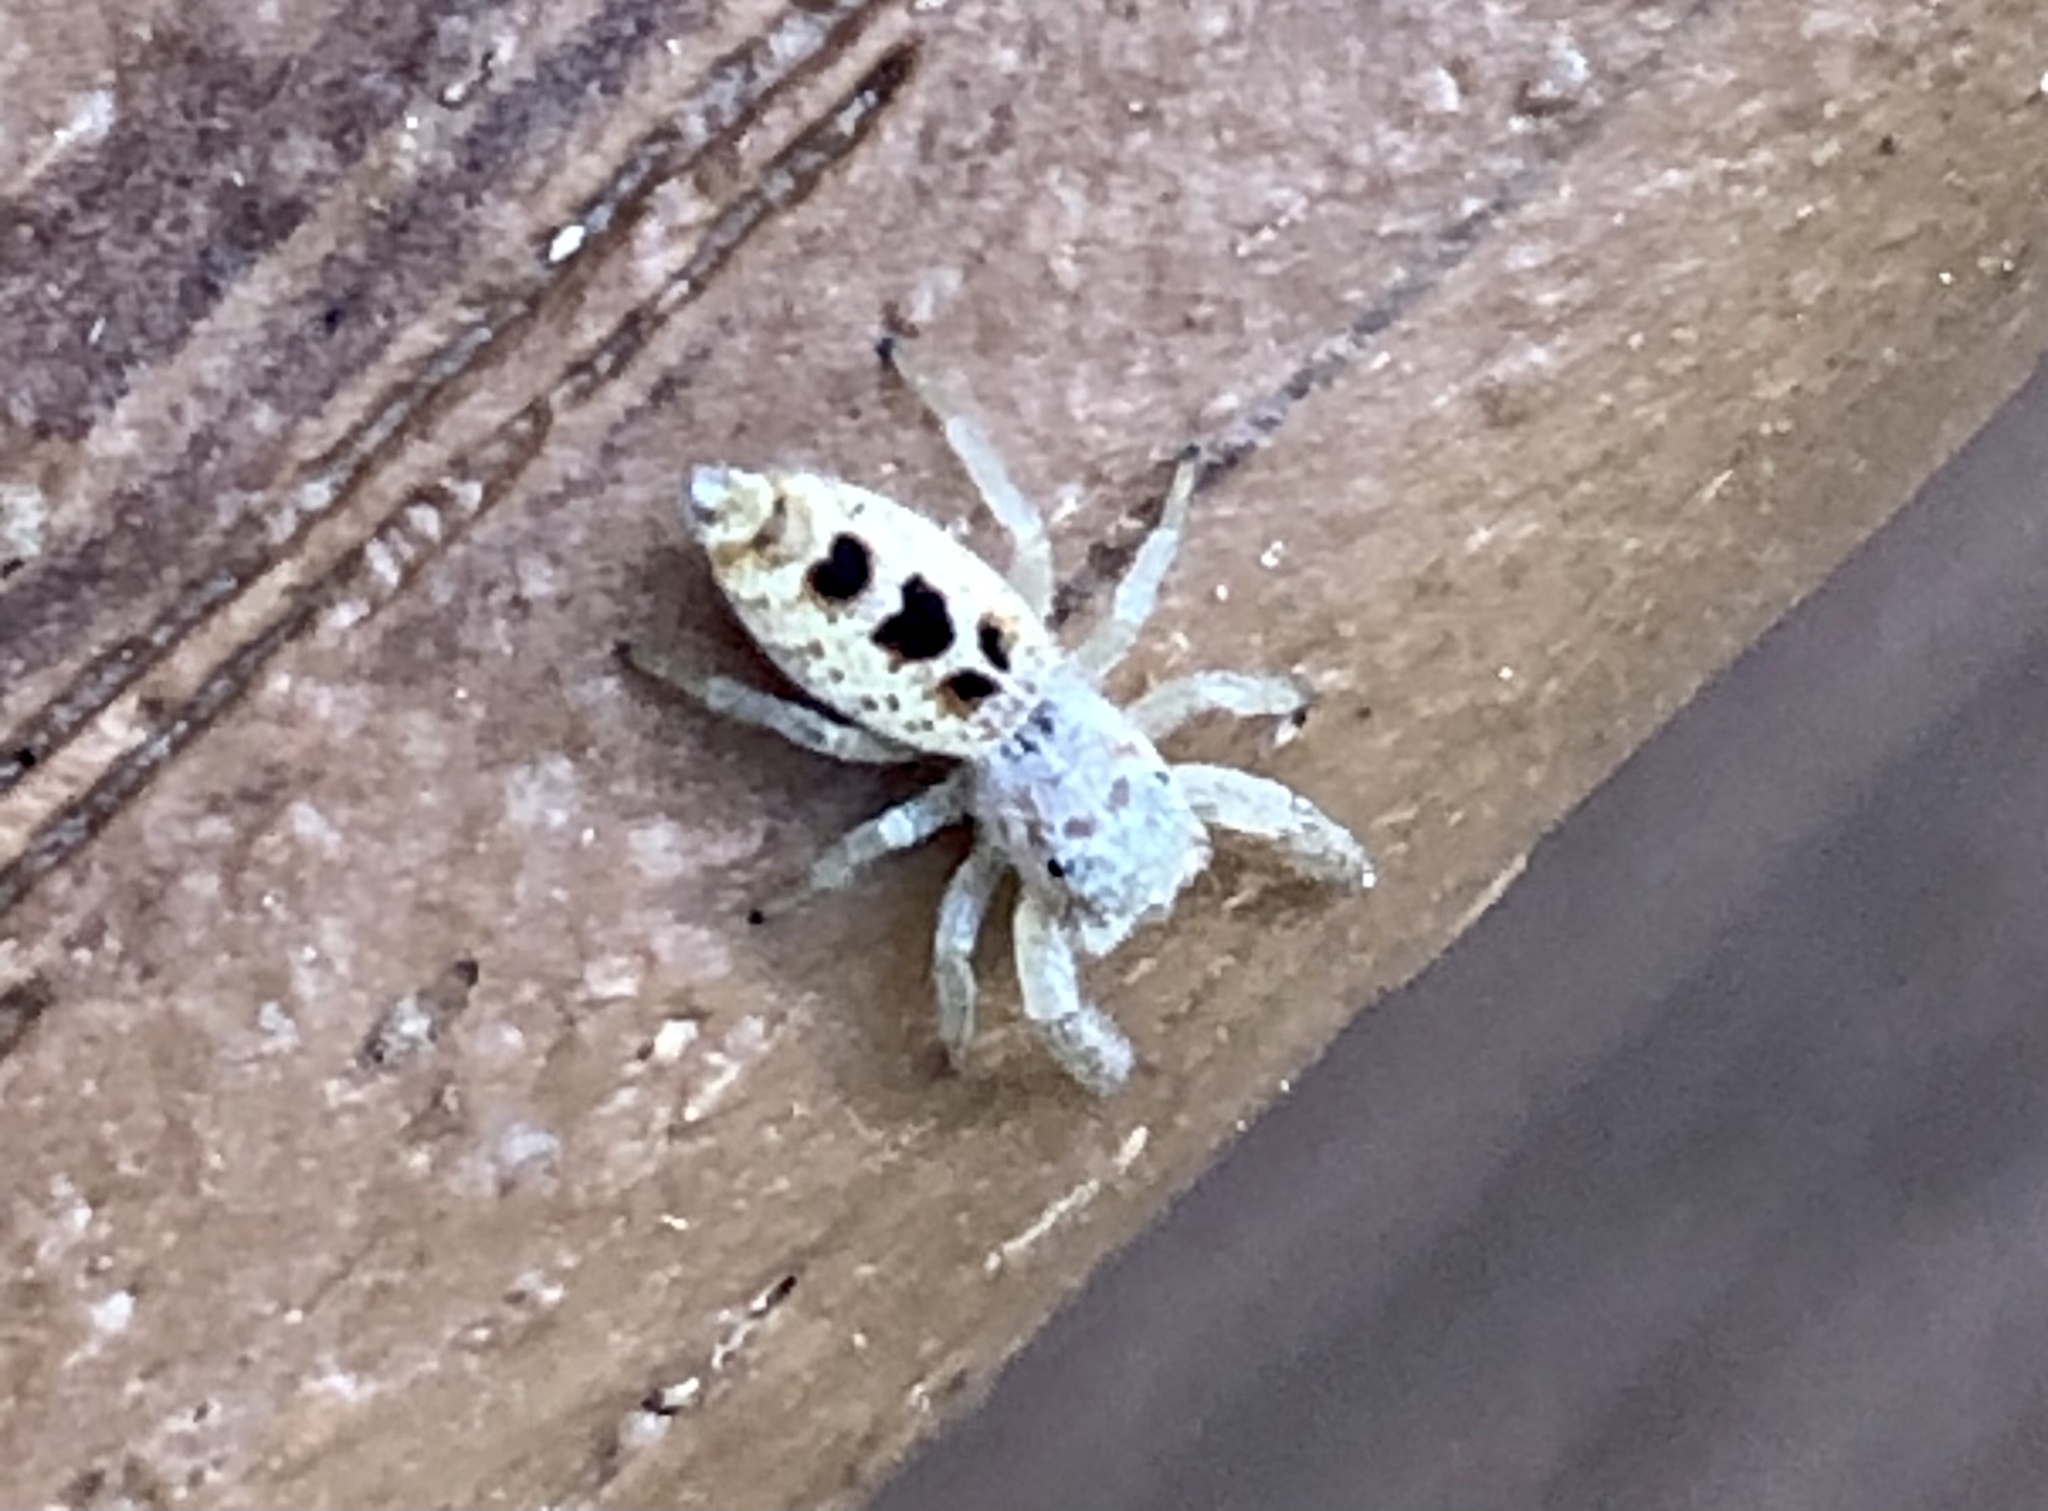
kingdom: Animalia
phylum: Arthropoda
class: Arachnida
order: Araneae
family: Salticidae
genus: Hentzia
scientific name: Hentzia
